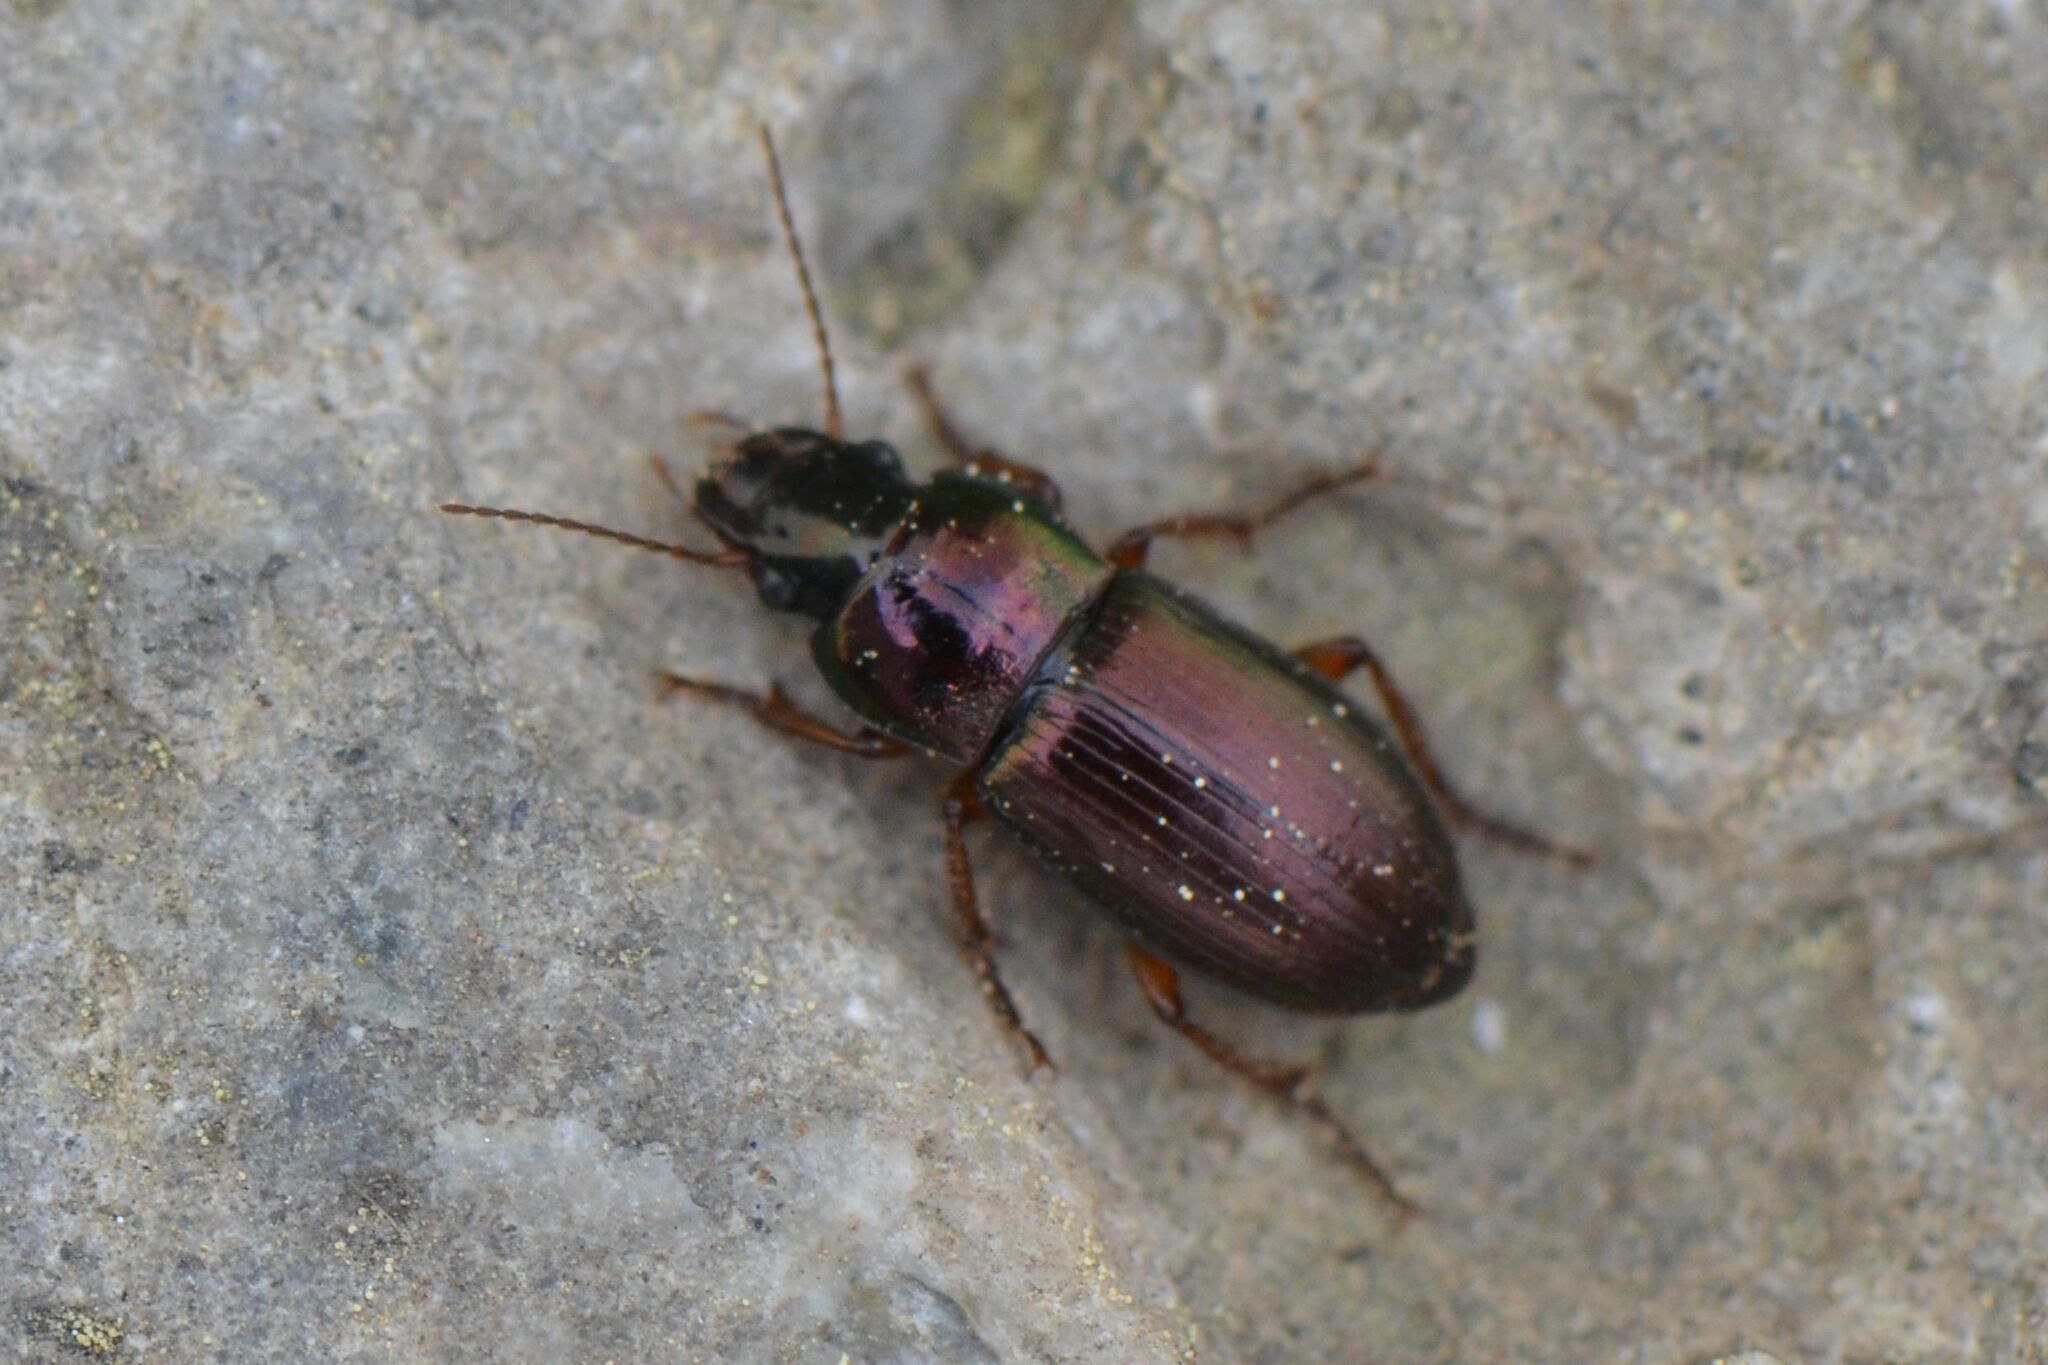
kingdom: Animalia
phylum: Arthropoda
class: Insecta
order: Coleoptera
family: Carabidae
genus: Harpalus
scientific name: Harpalus affinis
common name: Polychrome harp ground beetle
